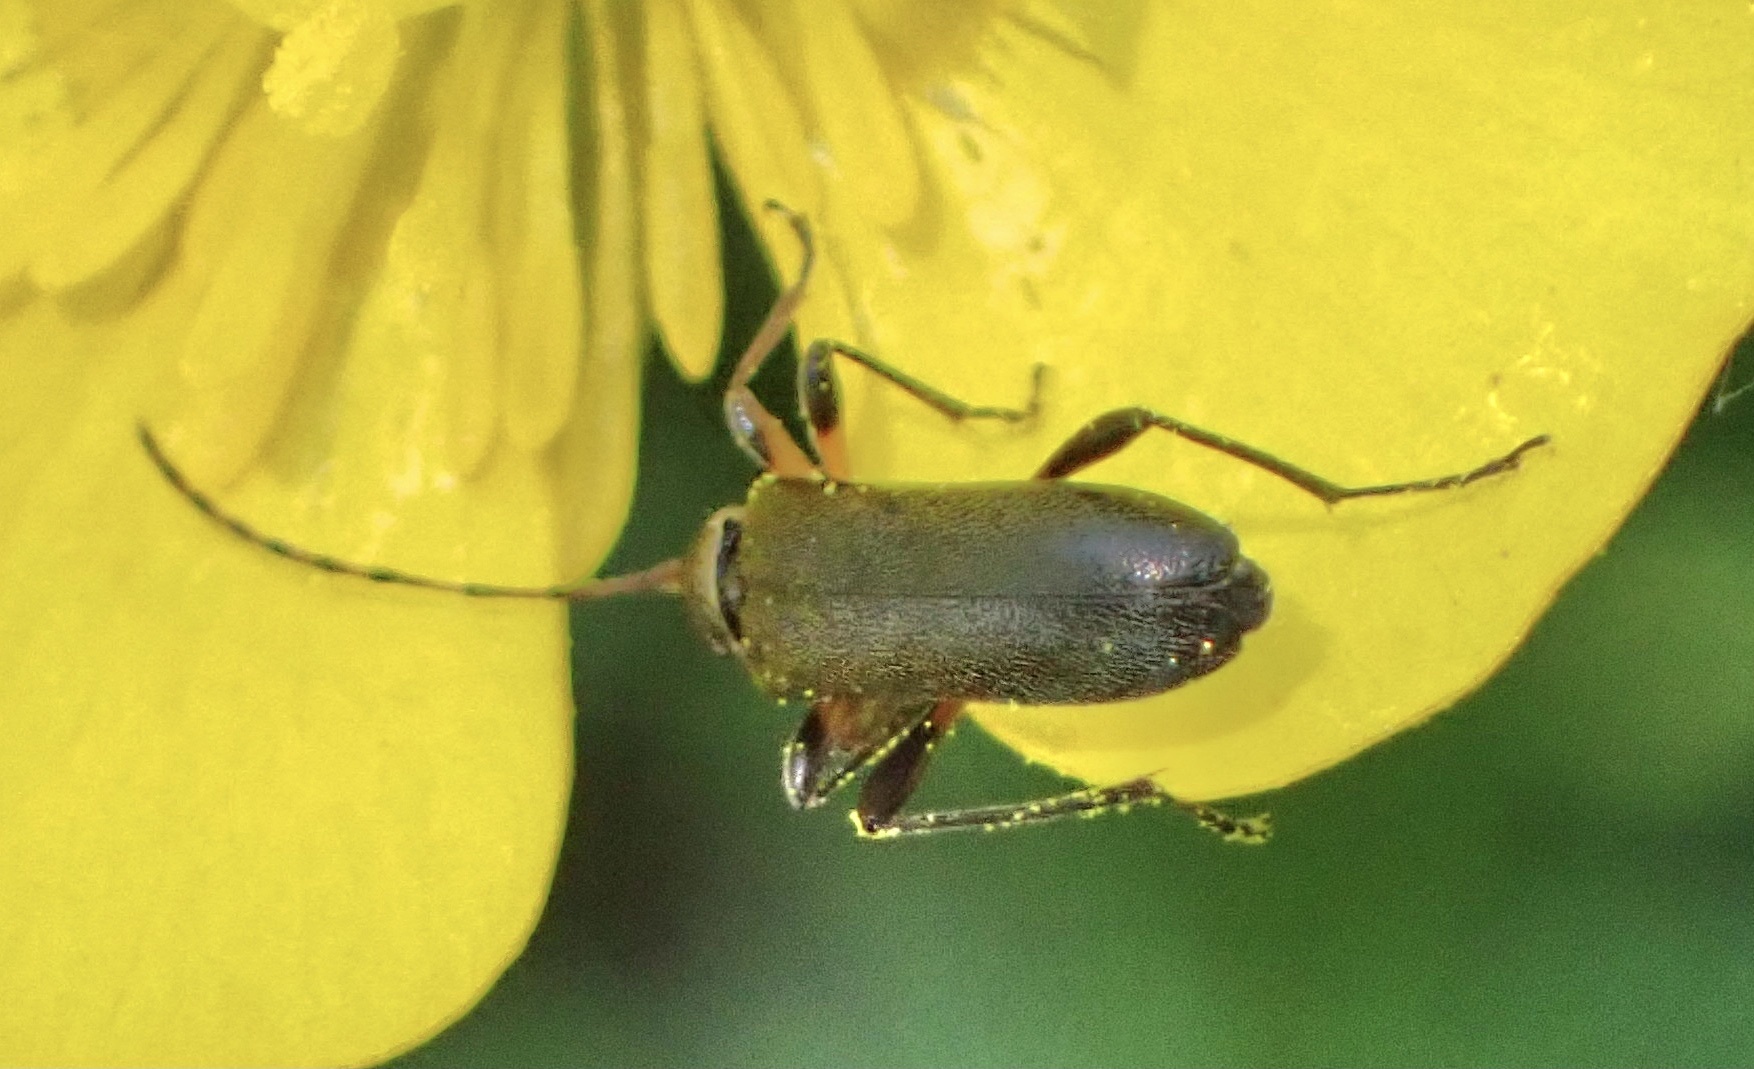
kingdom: Animalia
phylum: Arthropoda
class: Insecta
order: Coleoptera
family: Cerambycidae
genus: Grammoptera
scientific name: Grammoptera ruficornis
